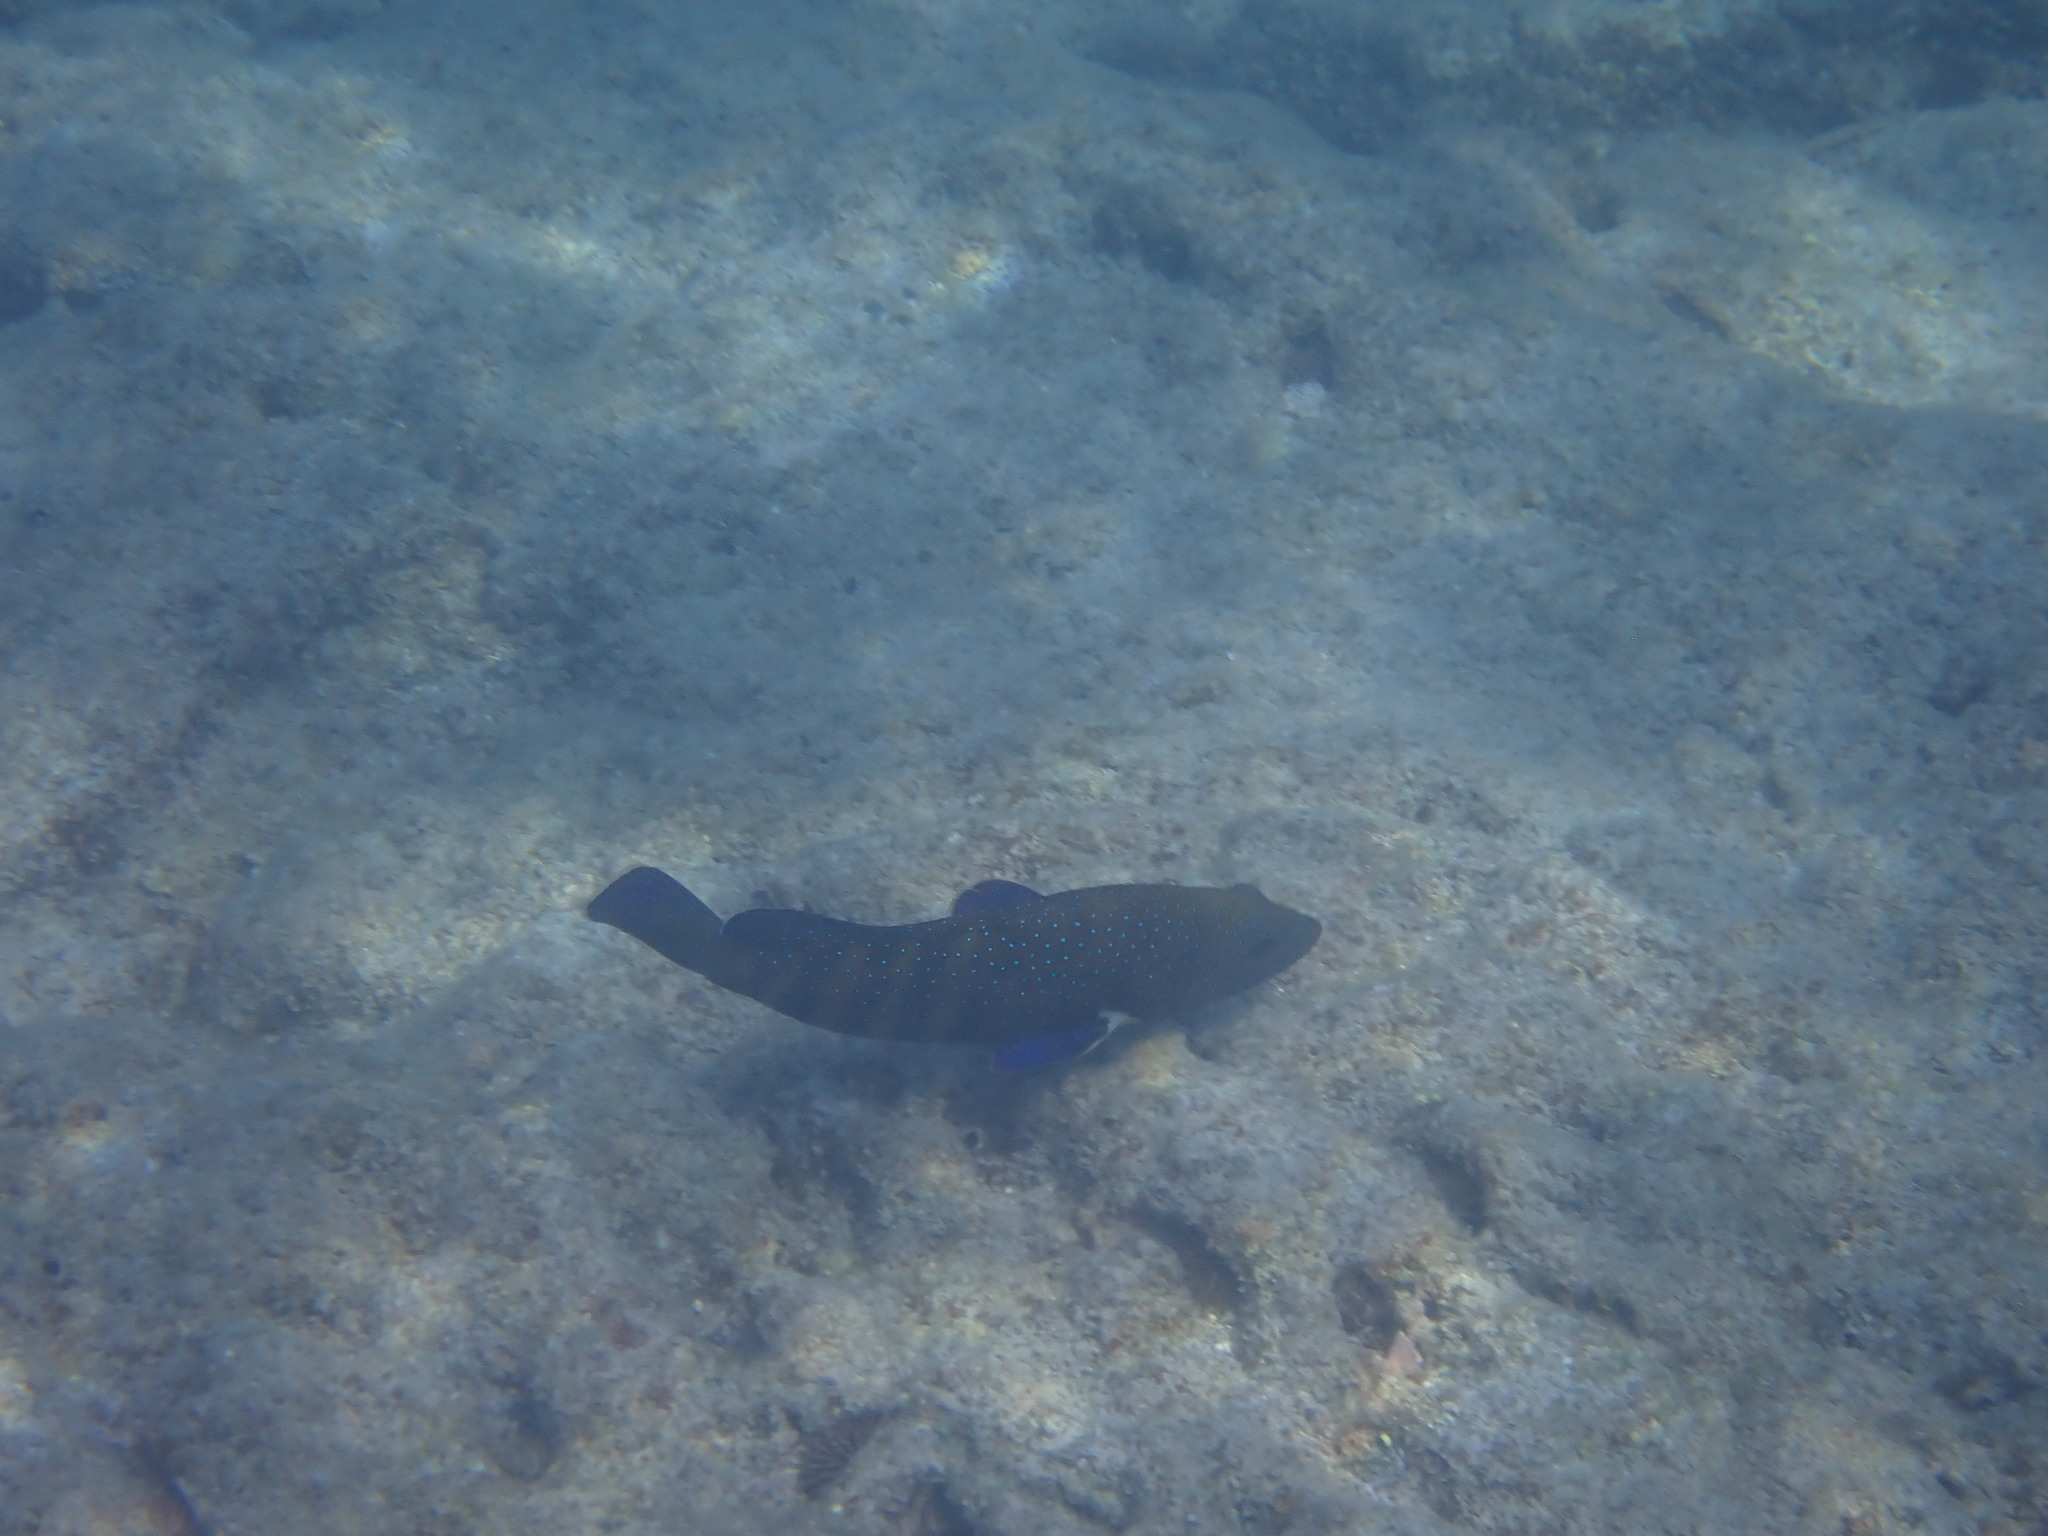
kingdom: Animalia
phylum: Chordata
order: Perciformes
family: Serranidae
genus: Cephalopholis
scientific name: Cephalopholis argus
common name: Peacock grouper
